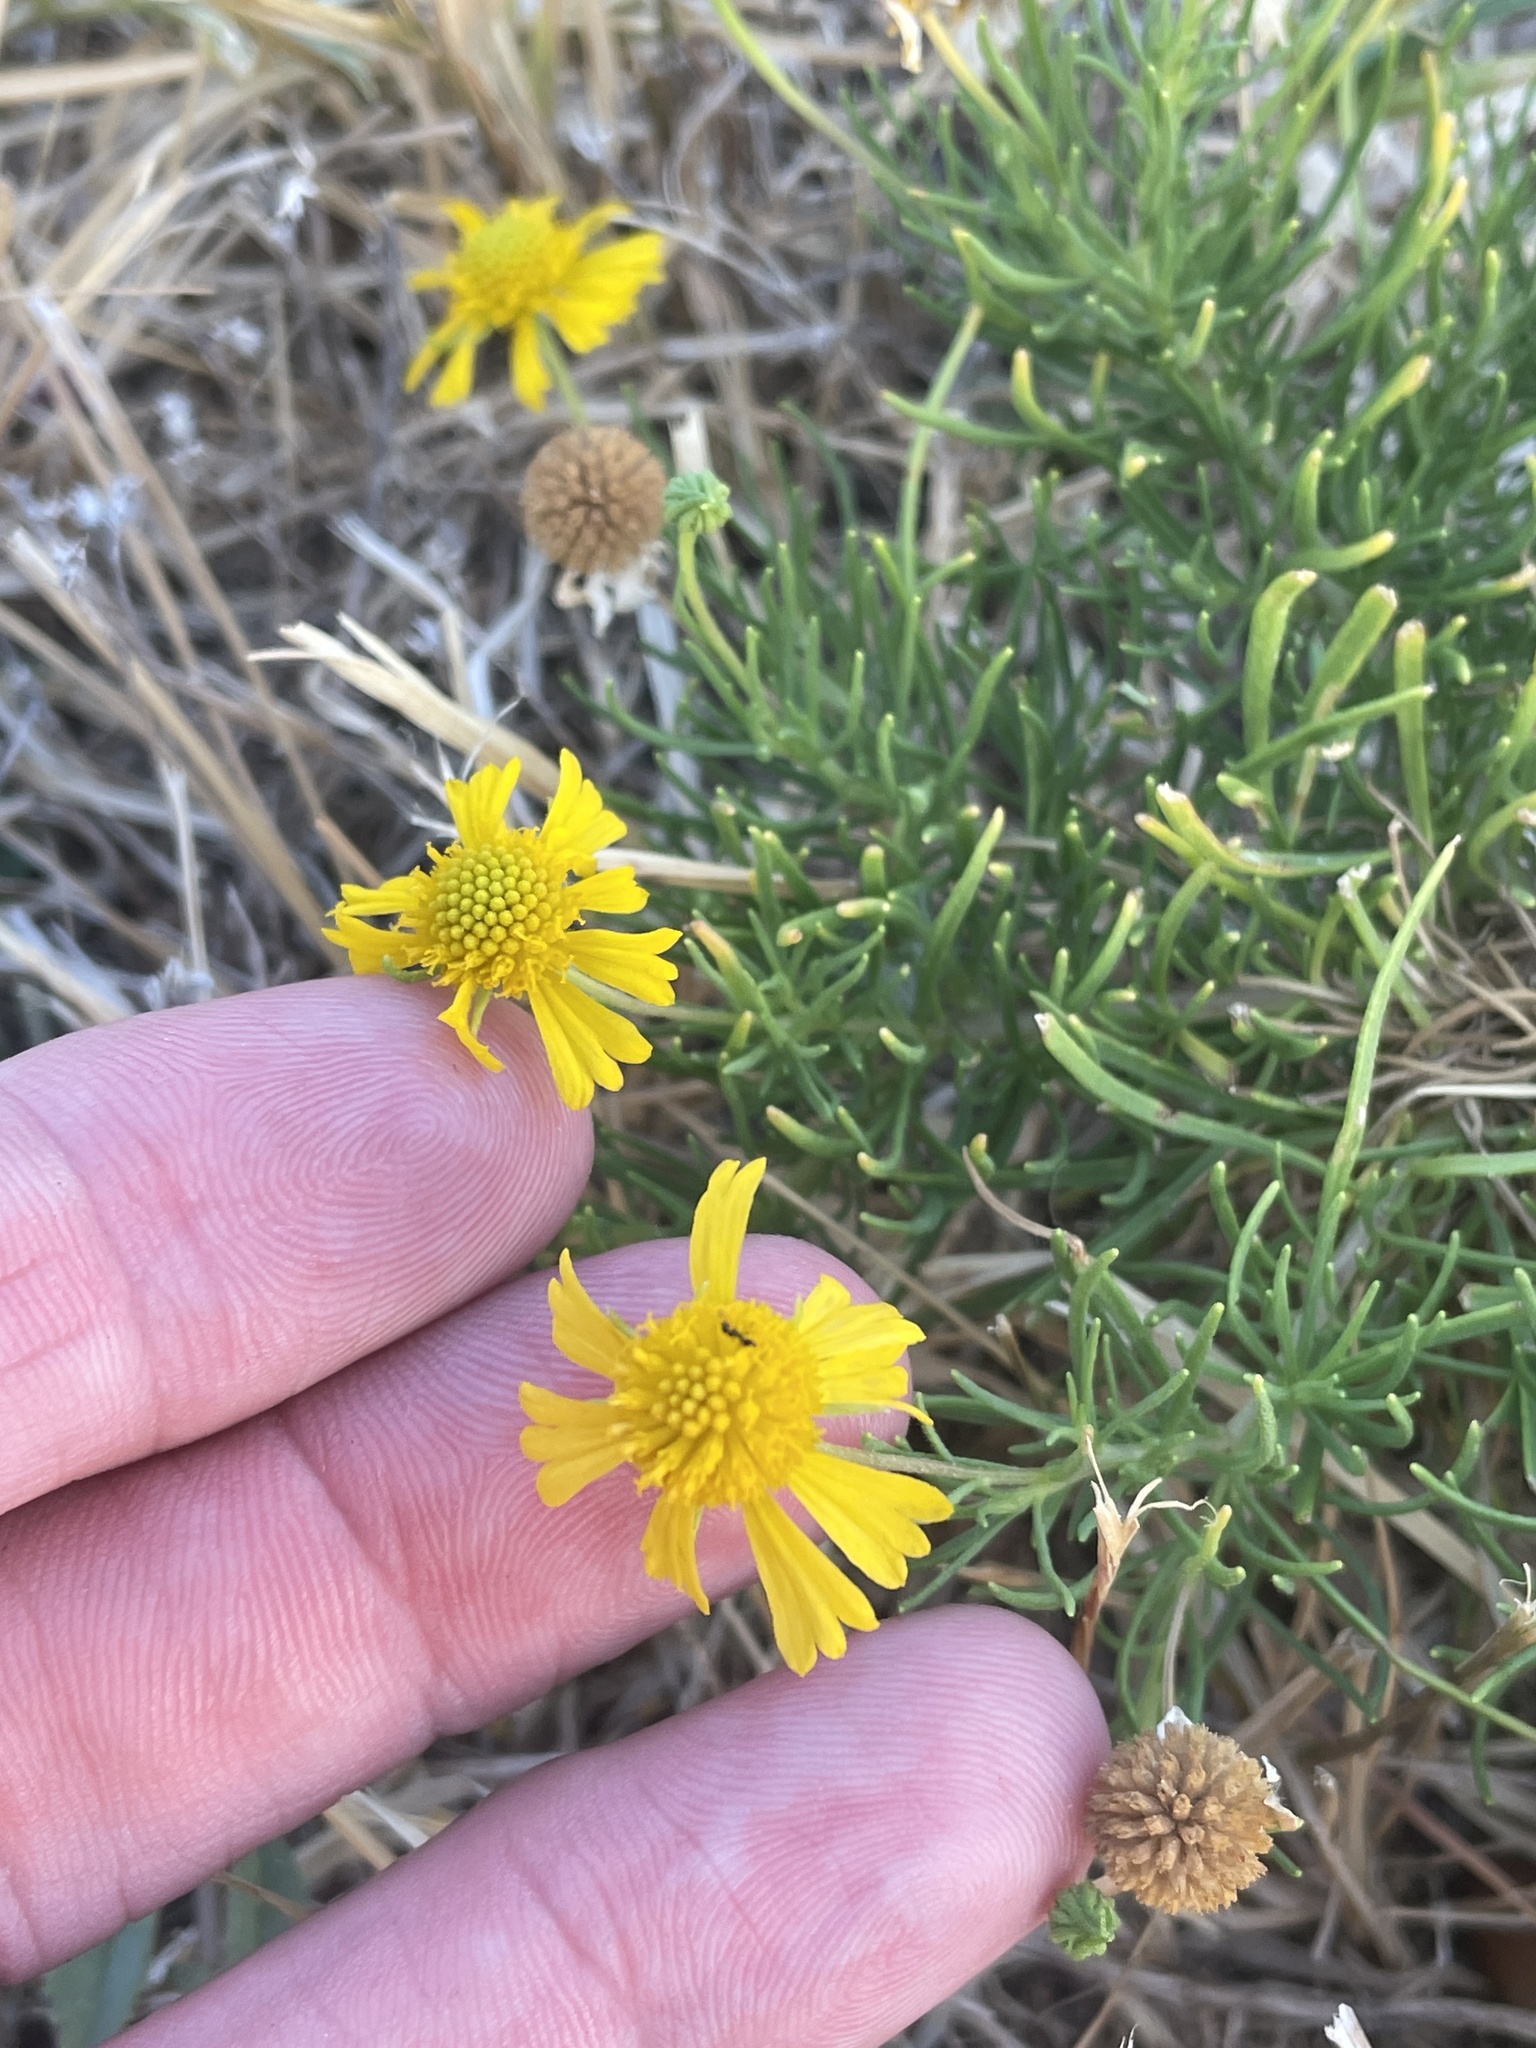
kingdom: Plantae
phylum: Tracheophyta
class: Magnoliopsida
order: Asterales
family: Asteraceae
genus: Helenium
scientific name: Helenium amarum
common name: Bitter sneezeweed
